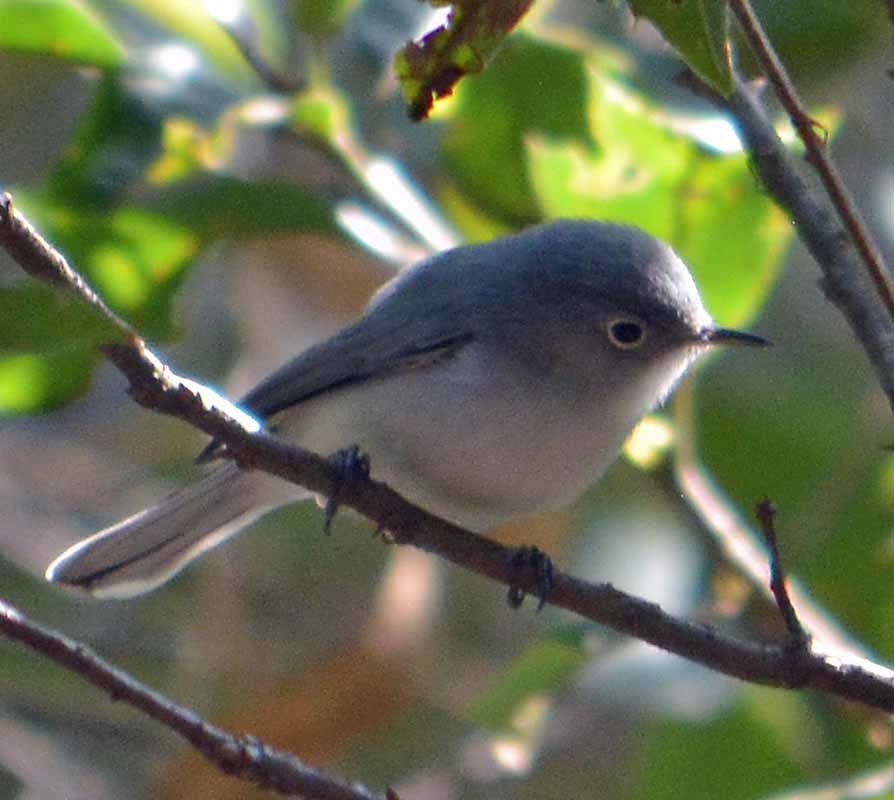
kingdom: Animalia
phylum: Chordata
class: Aves
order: Passeriformes
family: Polioptilidae
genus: Polioptila
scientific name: Polioptila caerulea
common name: Blue-gray gnatcatcher
